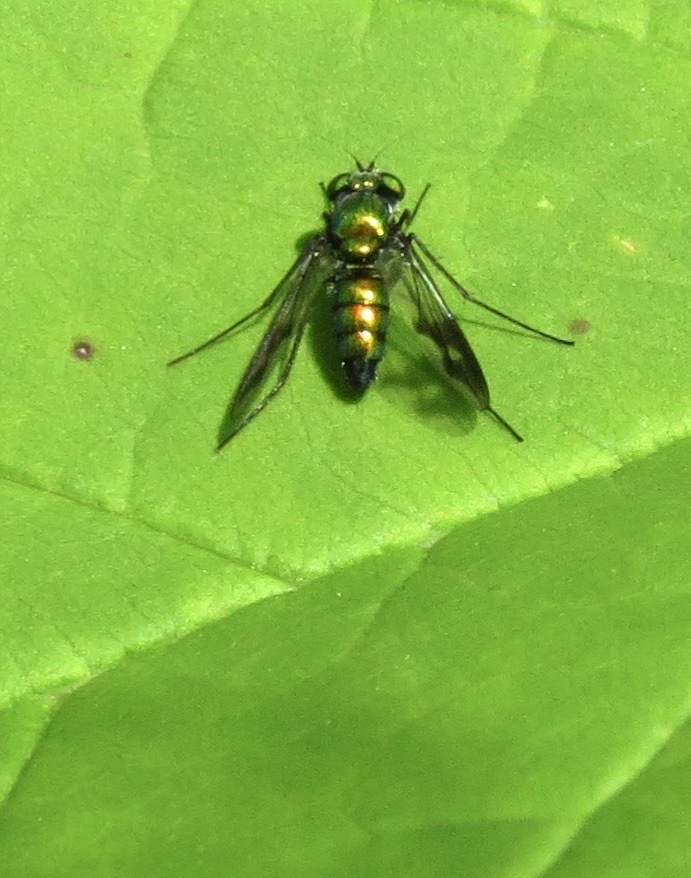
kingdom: Animalia
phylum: Arthropoda
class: Insecta
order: Diptera
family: Dolichopodidae
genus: Condylostylus
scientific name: Condylostylus patibulatus
